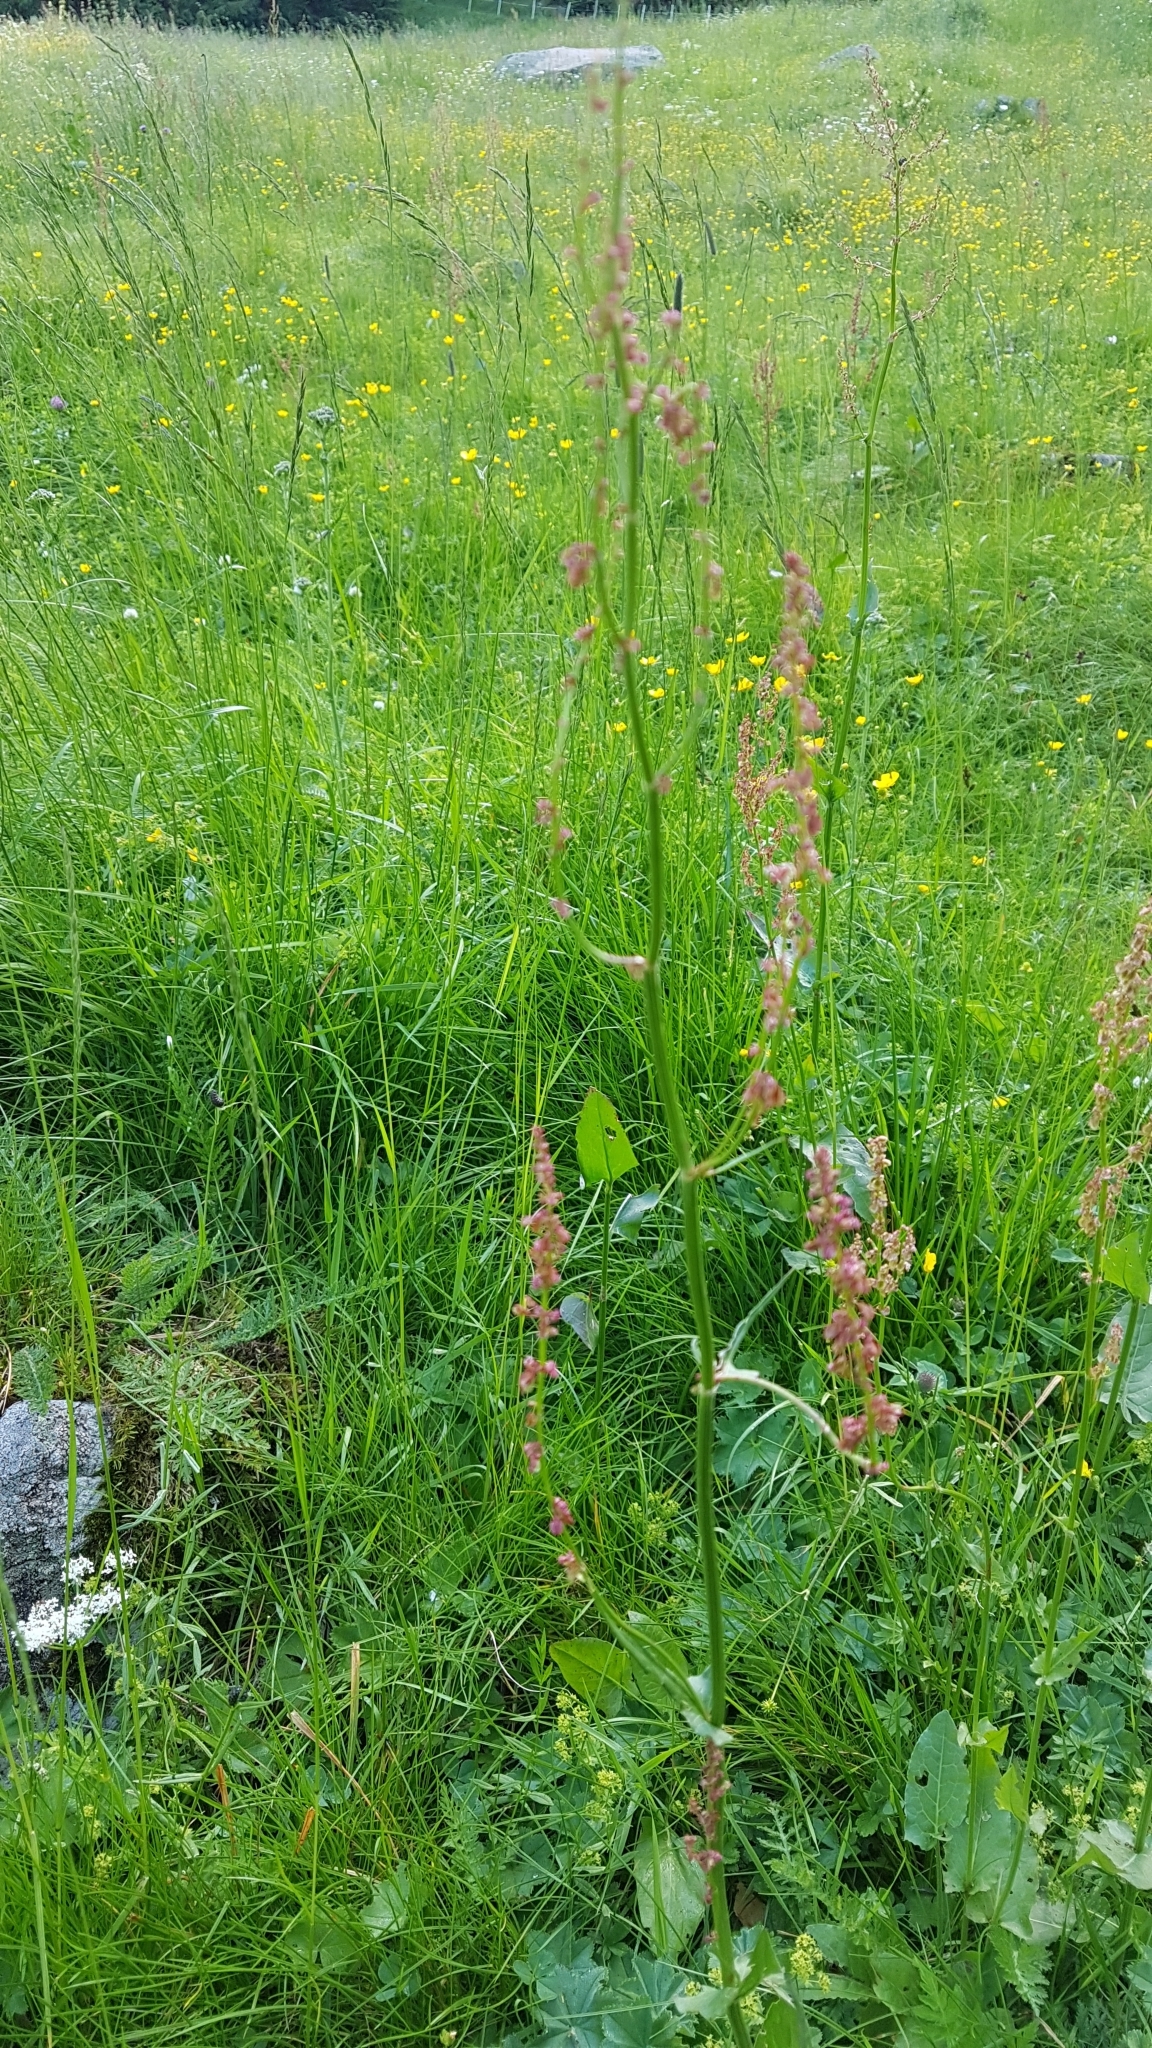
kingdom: Plantae
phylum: Tracheophyta
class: Magnoliopsida
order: Caryophyllales
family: Polygonaceae
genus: Rumex
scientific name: Rumex acetosa
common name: Garden sorrel
